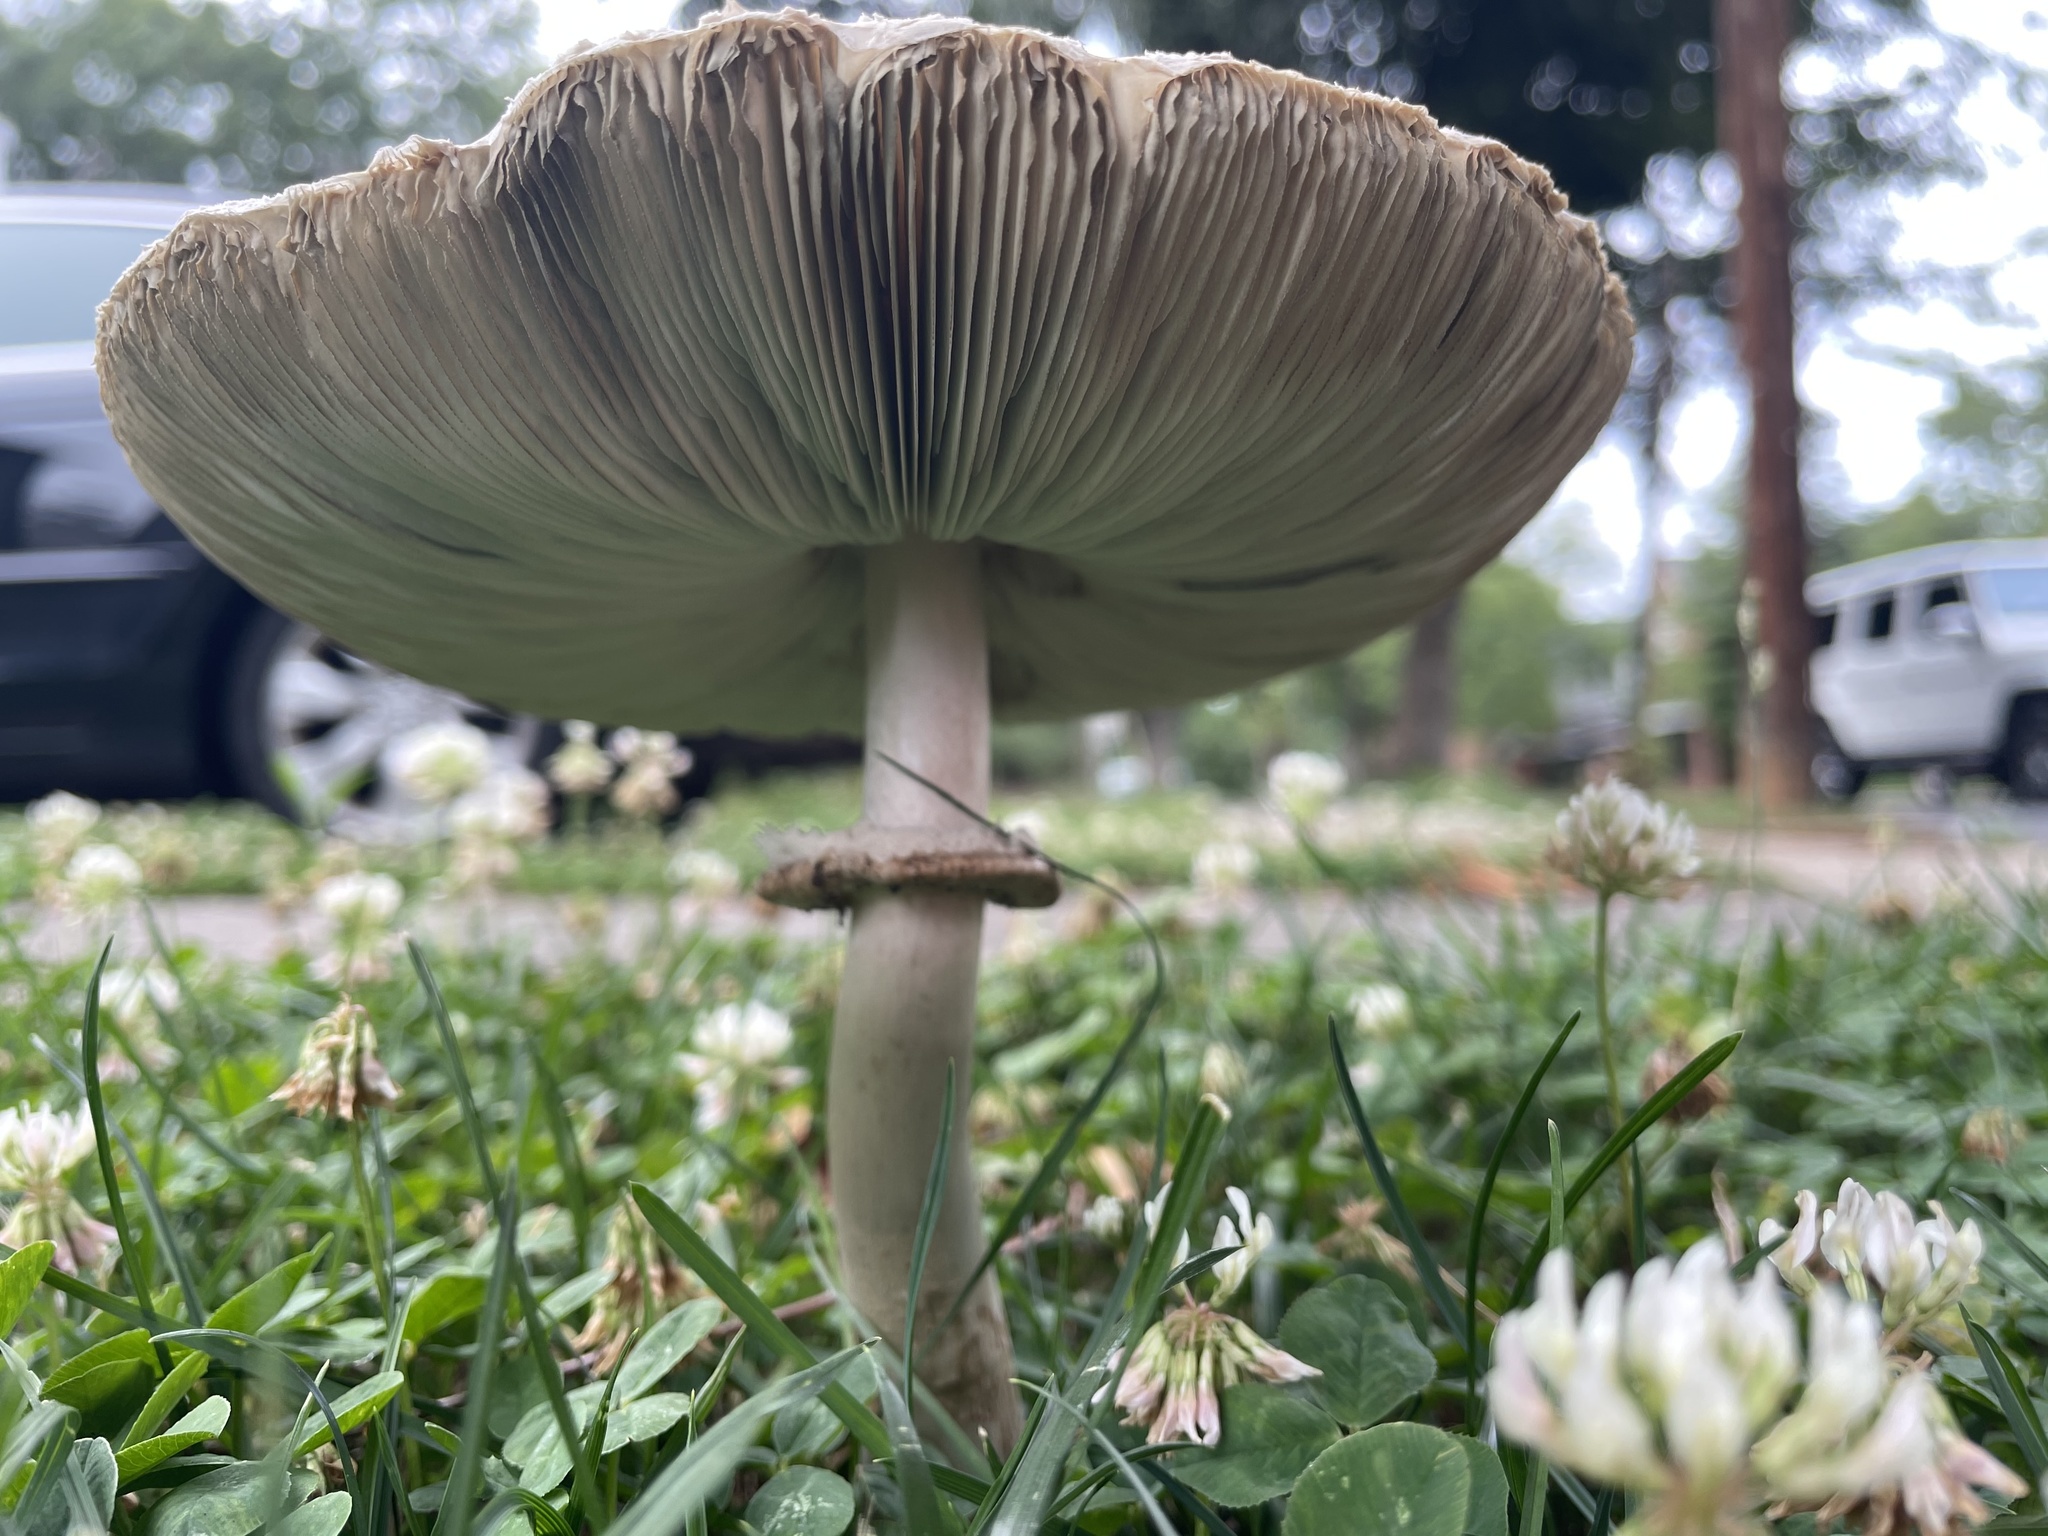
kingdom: Fungi
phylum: Basidiomycota
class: Agaricomycetes
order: Agaricales
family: Agaricaceae
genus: Chlorophyllum
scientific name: Chlorophyllum molybdites
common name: False parasol
